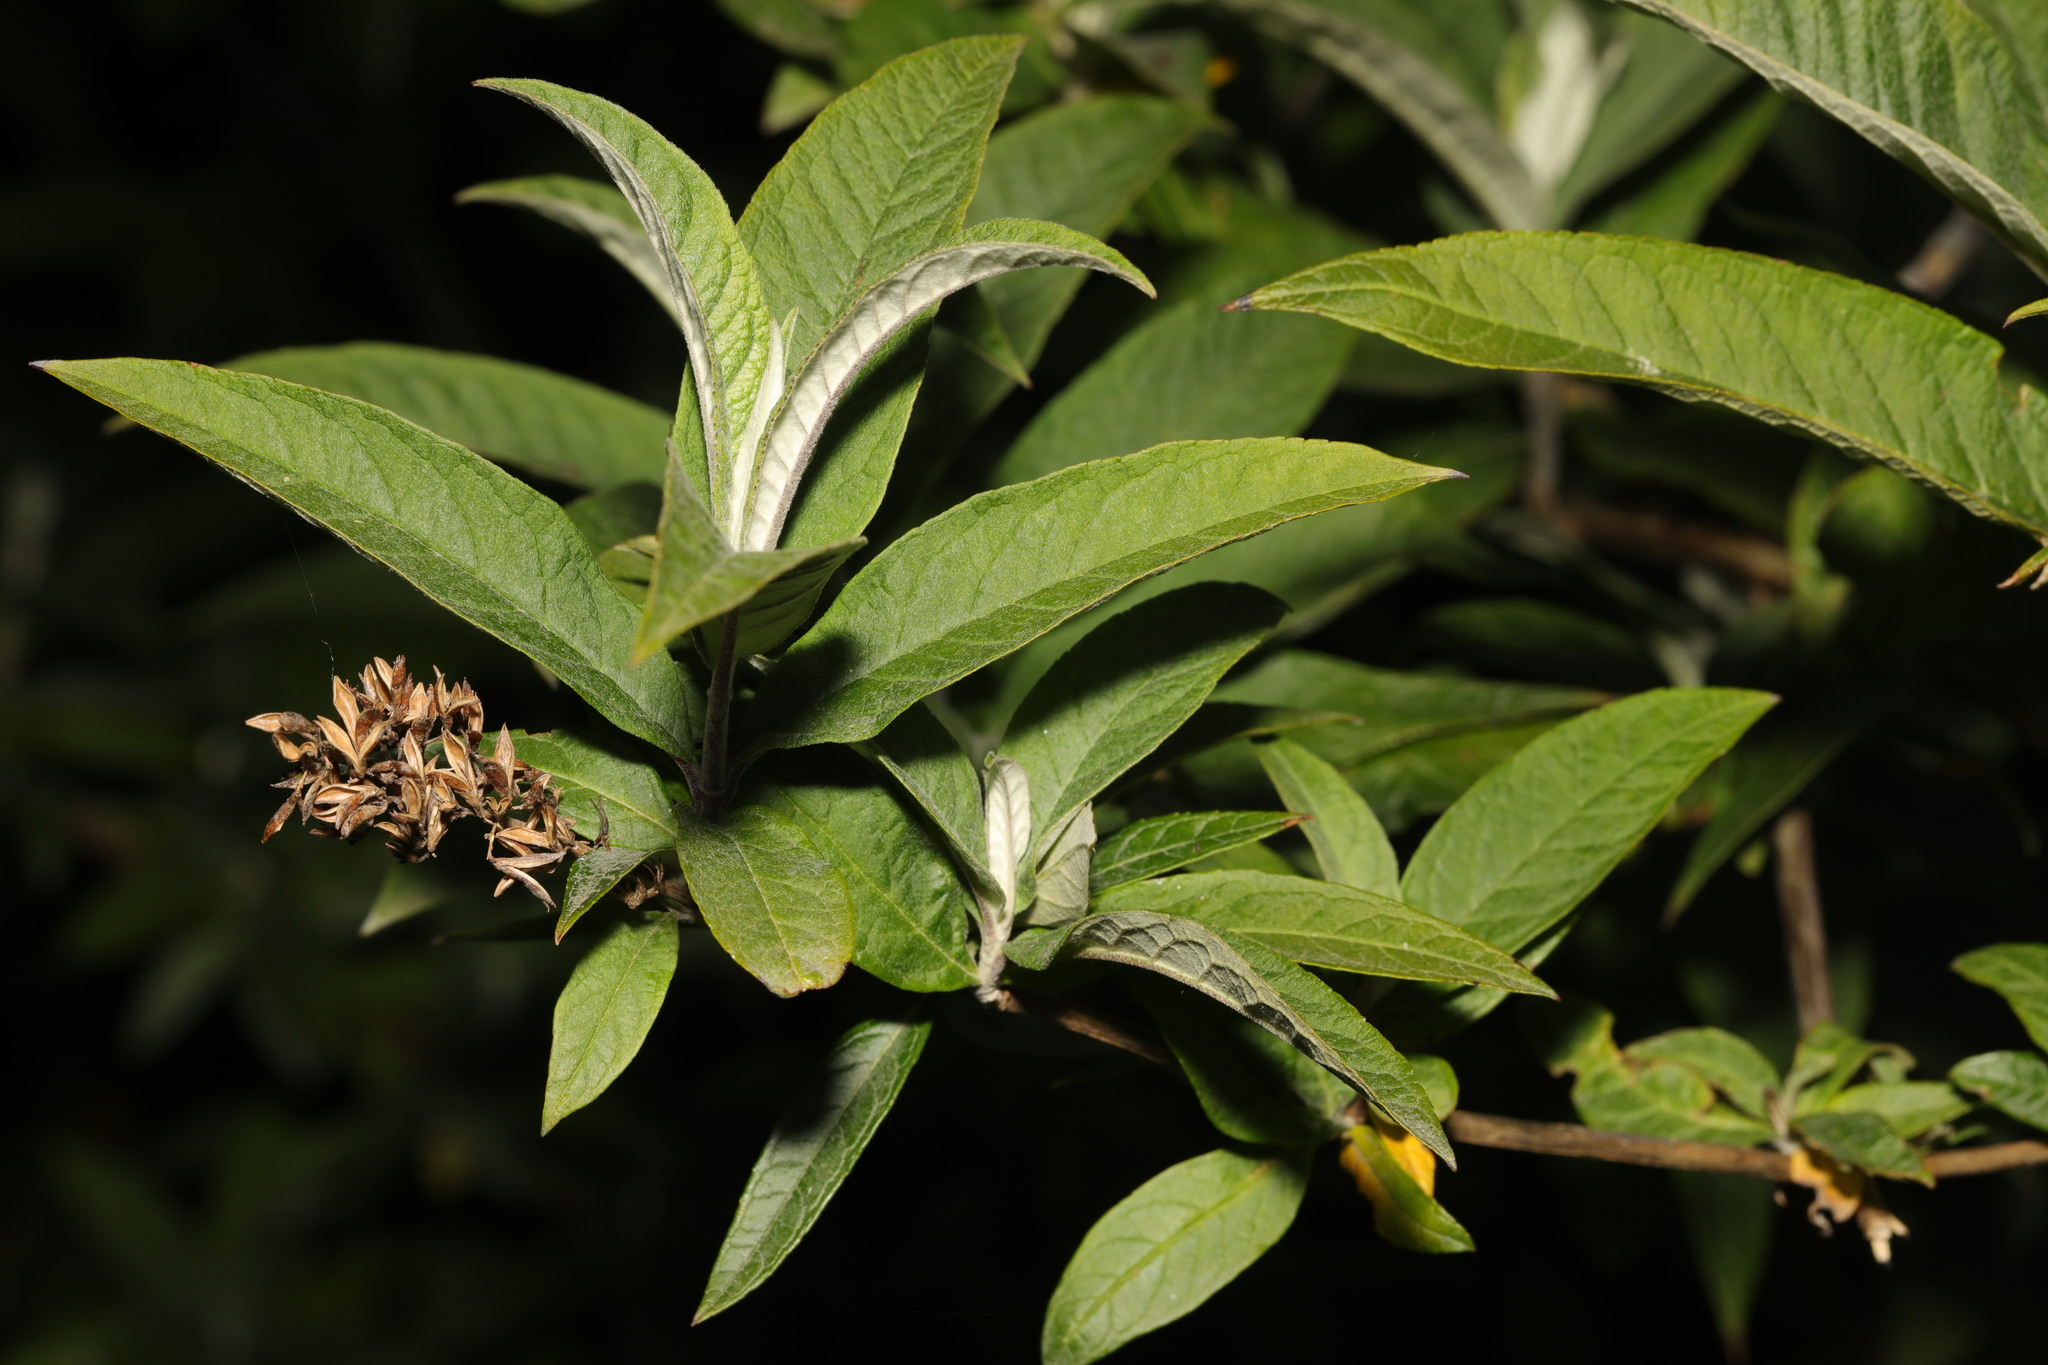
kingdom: Plantae
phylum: Tracheophyta
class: Magnoliopsida
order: Lamiales
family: Scrophulariaceae
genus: Buddleja
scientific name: Buddleja davidii
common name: Butterfly-bush
